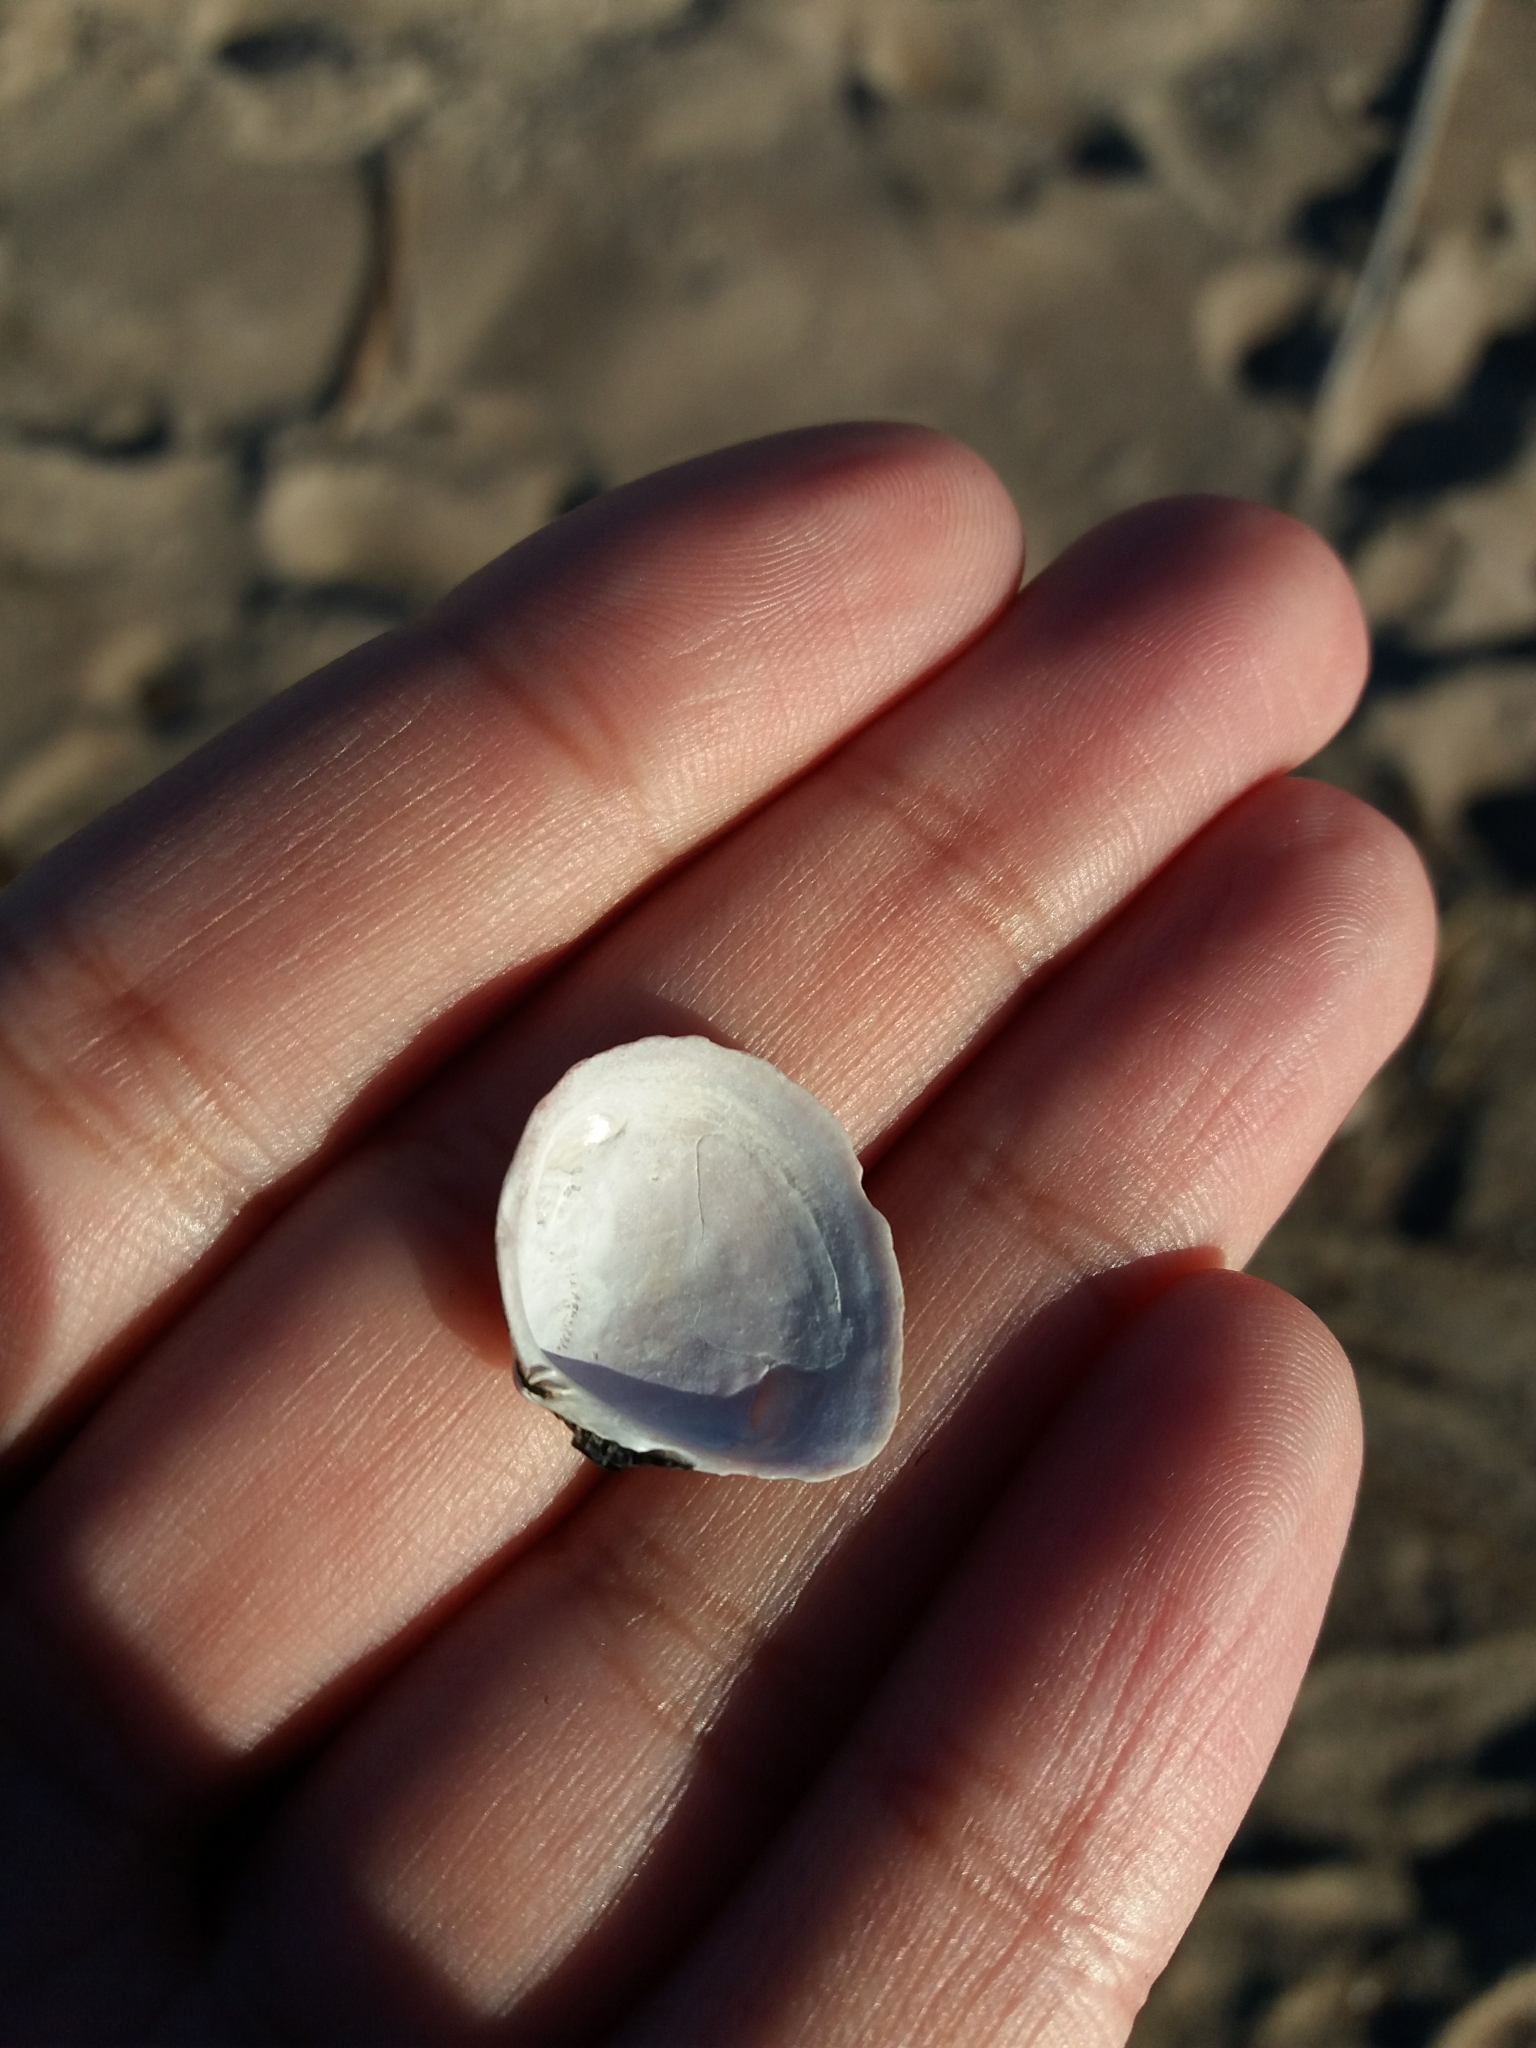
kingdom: Animalia
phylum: Mollusca
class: Bivalvia
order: Cardiida
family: Tellinidae
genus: Macoma
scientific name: Macoma balthica
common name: Baltic tellin
